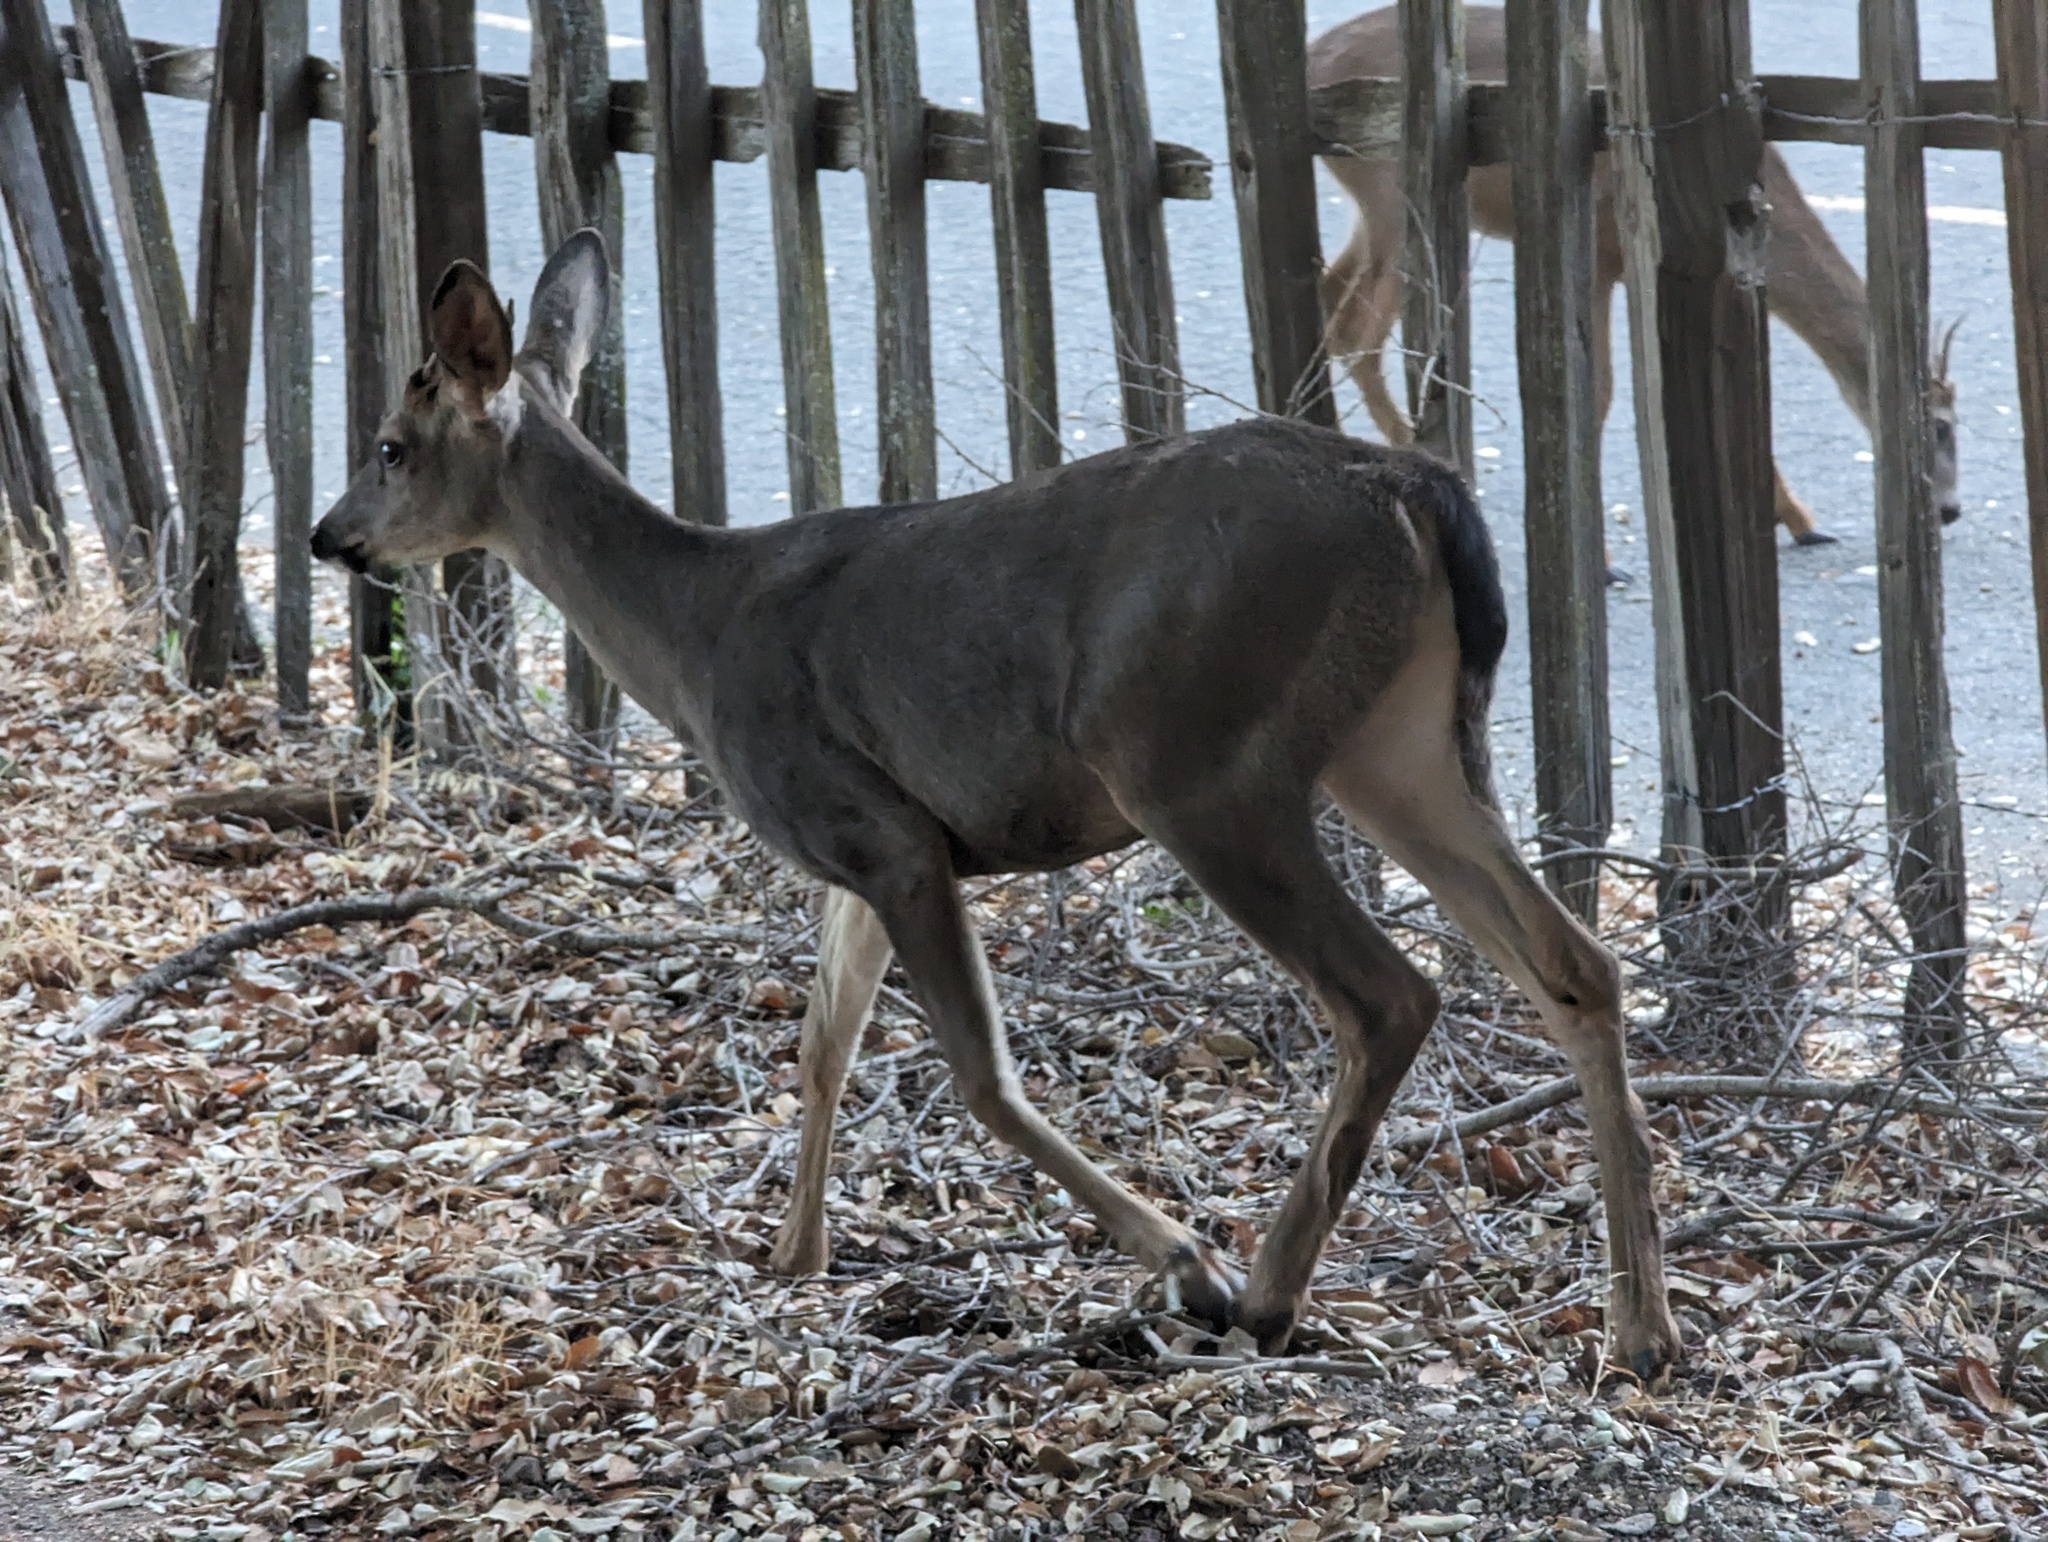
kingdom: Animalia
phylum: Chordata
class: Mammalia
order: Artiodactyla
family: Cervidae
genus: Odocoileus
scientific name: Odocoileus hemionus
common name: Mule deer
